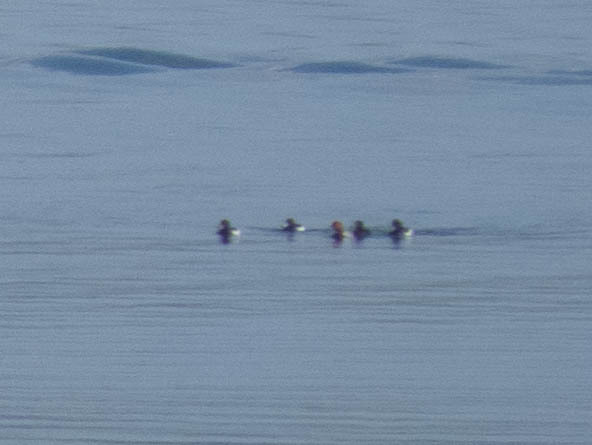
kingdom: Animalia
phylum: Chordata
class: Aves
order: Anseriformes
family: Anatidae
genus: Aythya
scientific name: Aythya ferina
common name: Common pochard
